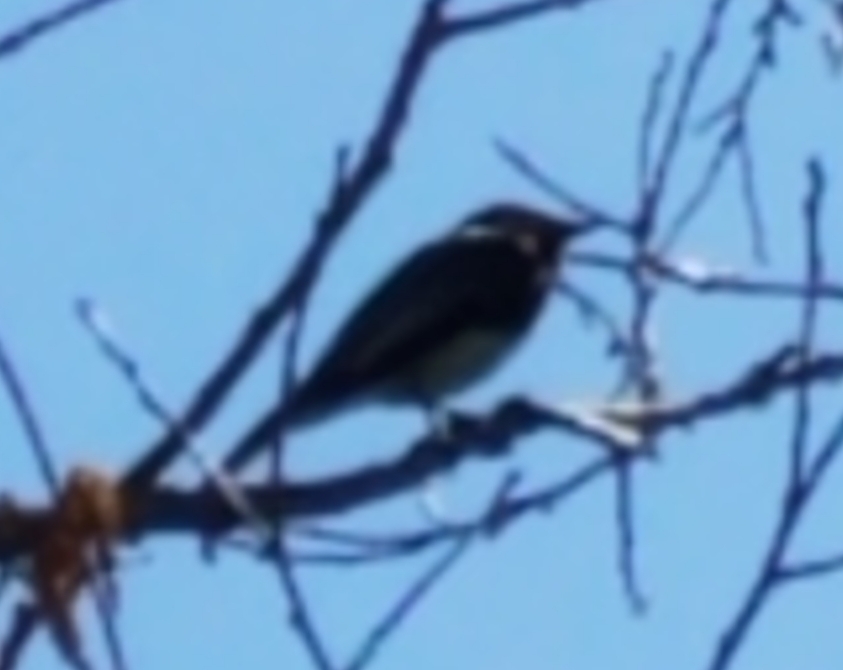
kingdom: Animalia
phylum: Chordata
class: Aves
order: Passeriformes
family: Tyrannidae
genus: Sayornis
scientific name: Sayornis nigricans
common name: Black phoebe
